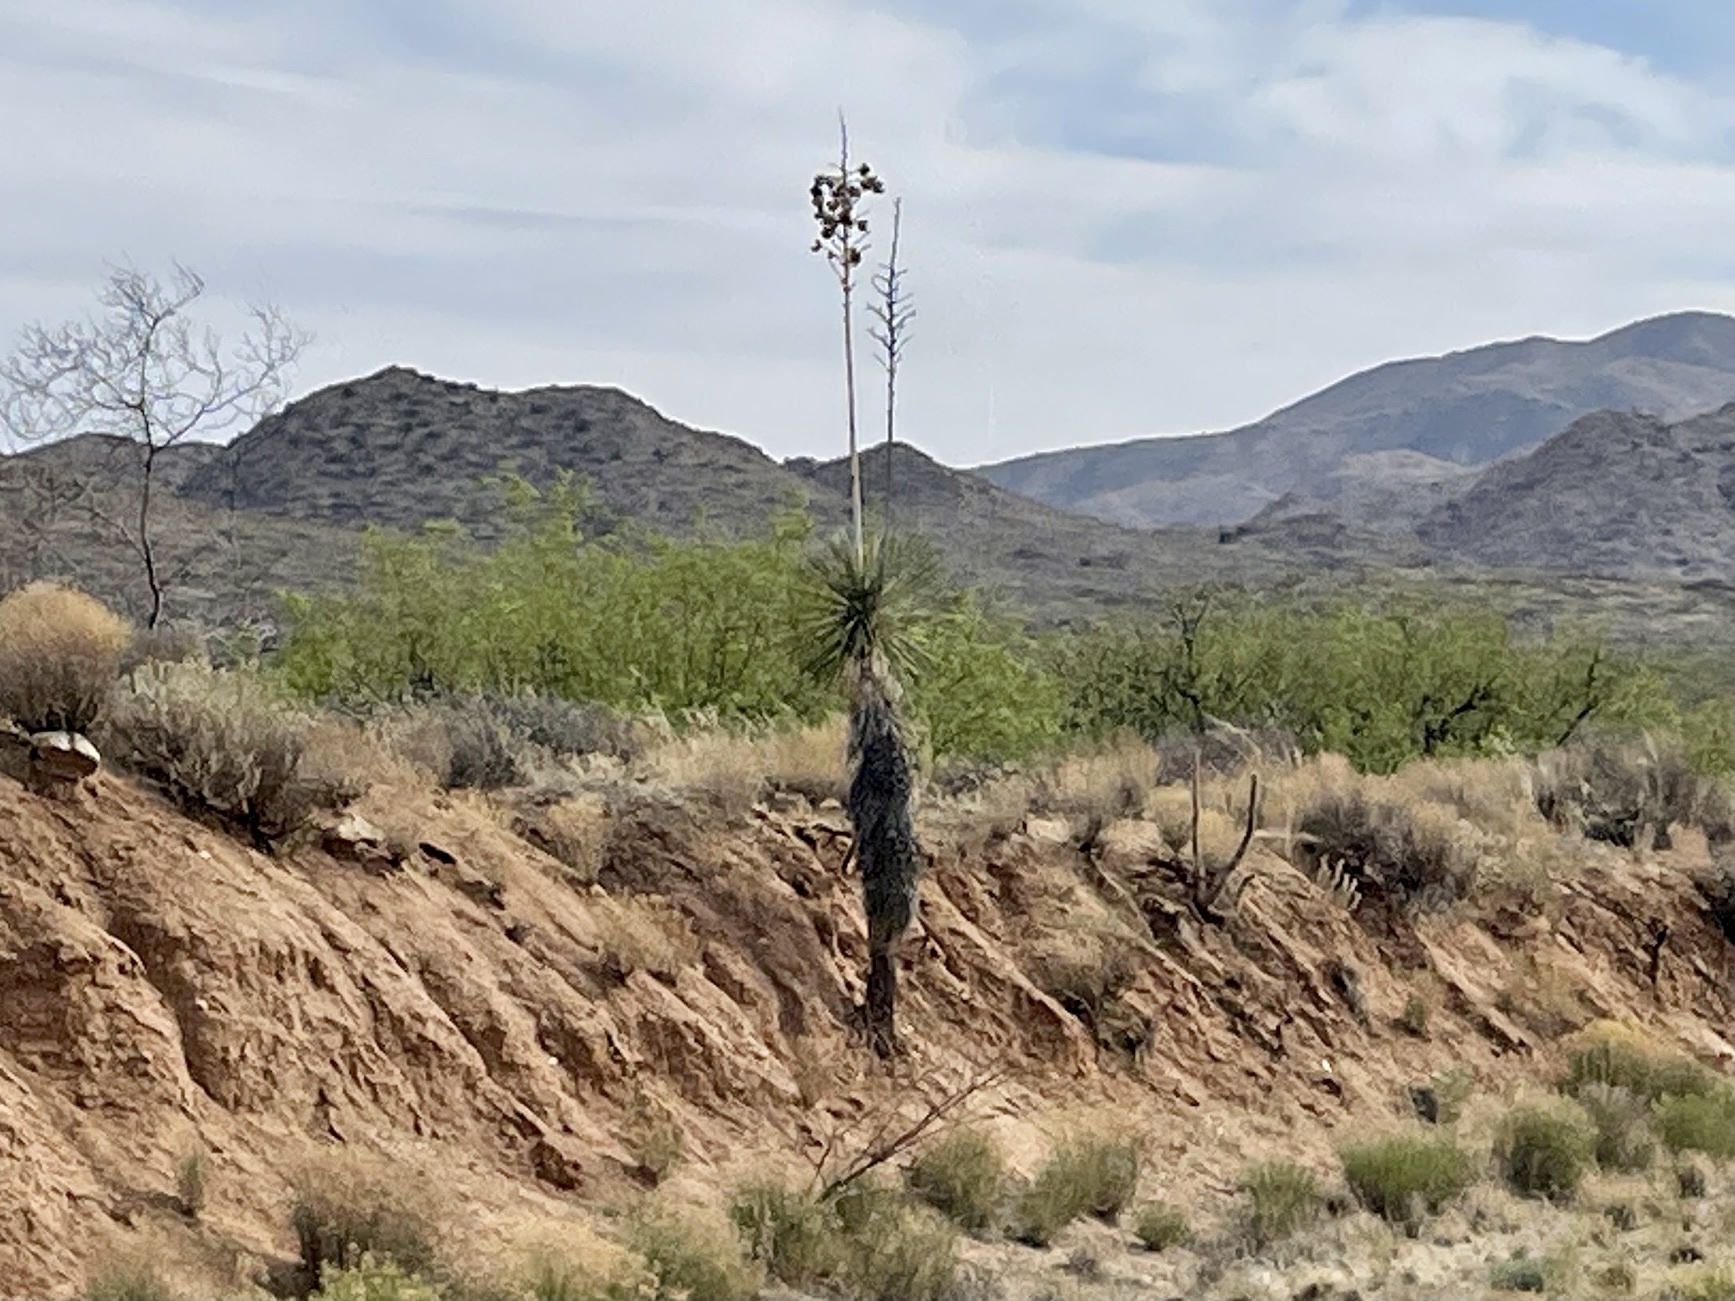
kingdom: Plantae
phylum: Tracheophyta
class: Liliopsida
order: Asparagales
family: Asparagaceae
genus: Yucca
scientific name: Yucca elata
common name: Palmella
